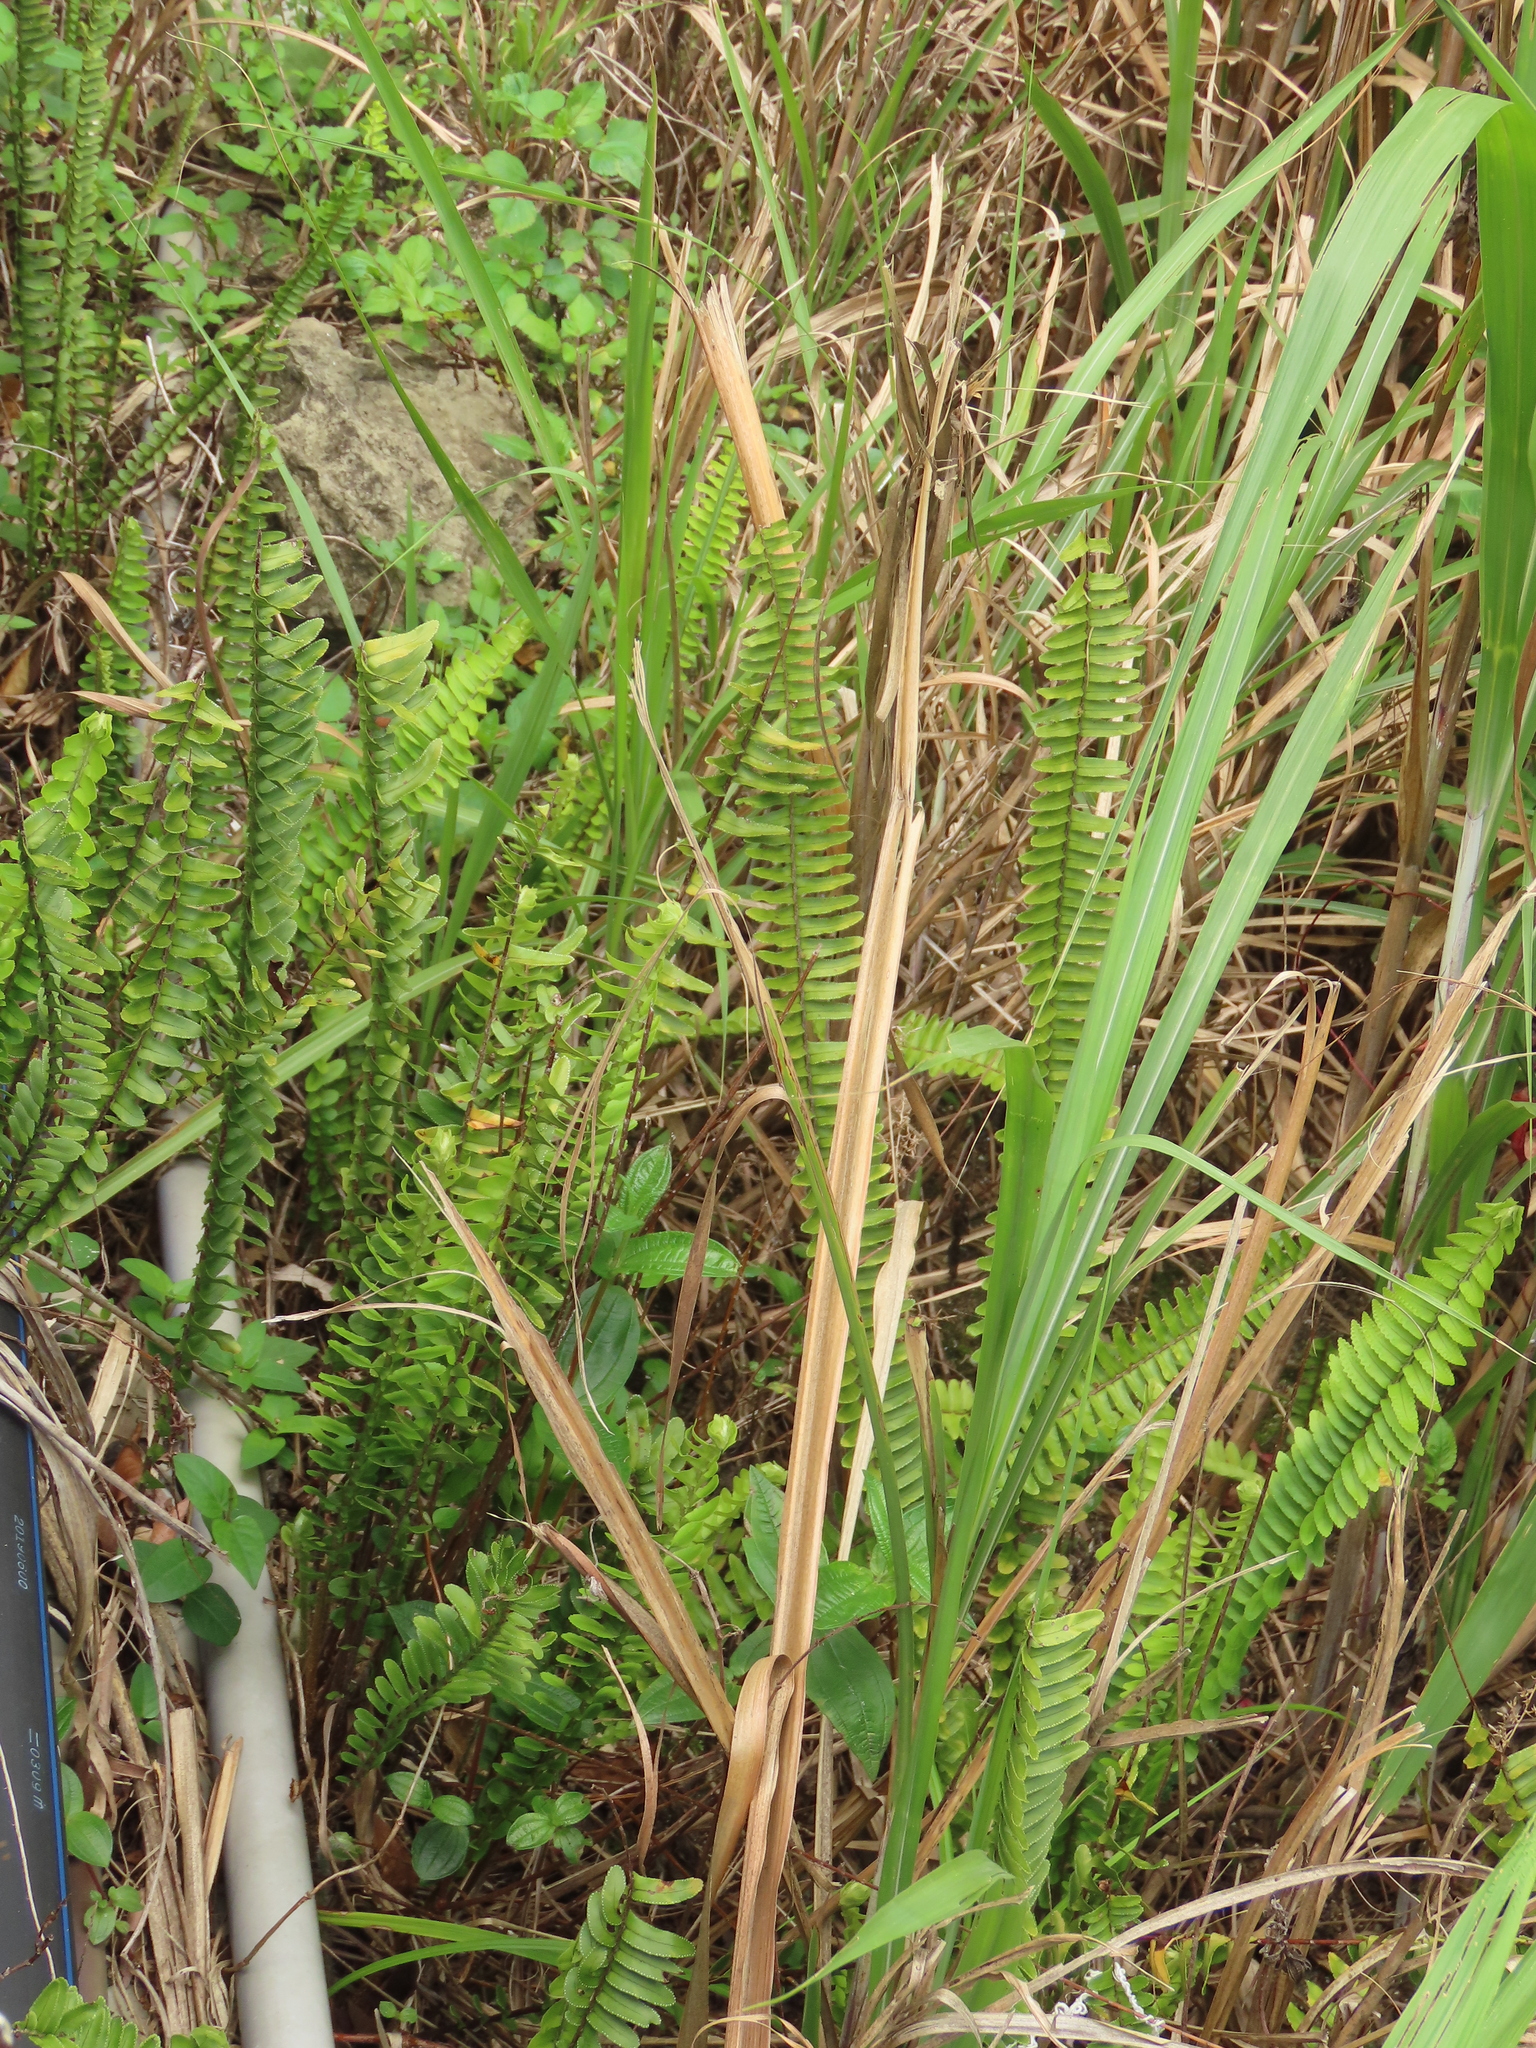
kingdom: Plantae
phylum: Tracheophyta
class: Polypodiopsida
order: Polypodiales
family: Nephrolepidaceae
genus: Nephrolepis
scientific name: Nephrolepis cordifolia
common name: Narrow swordfern
